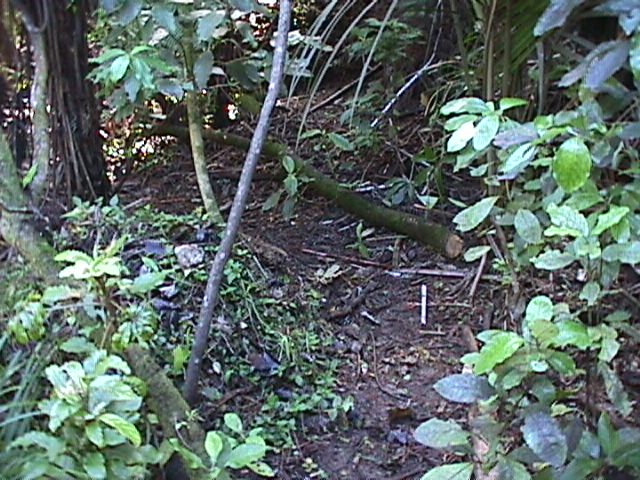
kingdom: Plantae
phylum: Tracheophyta
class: Magnoliopsida
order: Gentianales
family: Rubiaceae
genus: Coprosma
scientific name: Coprosma autumnalis
